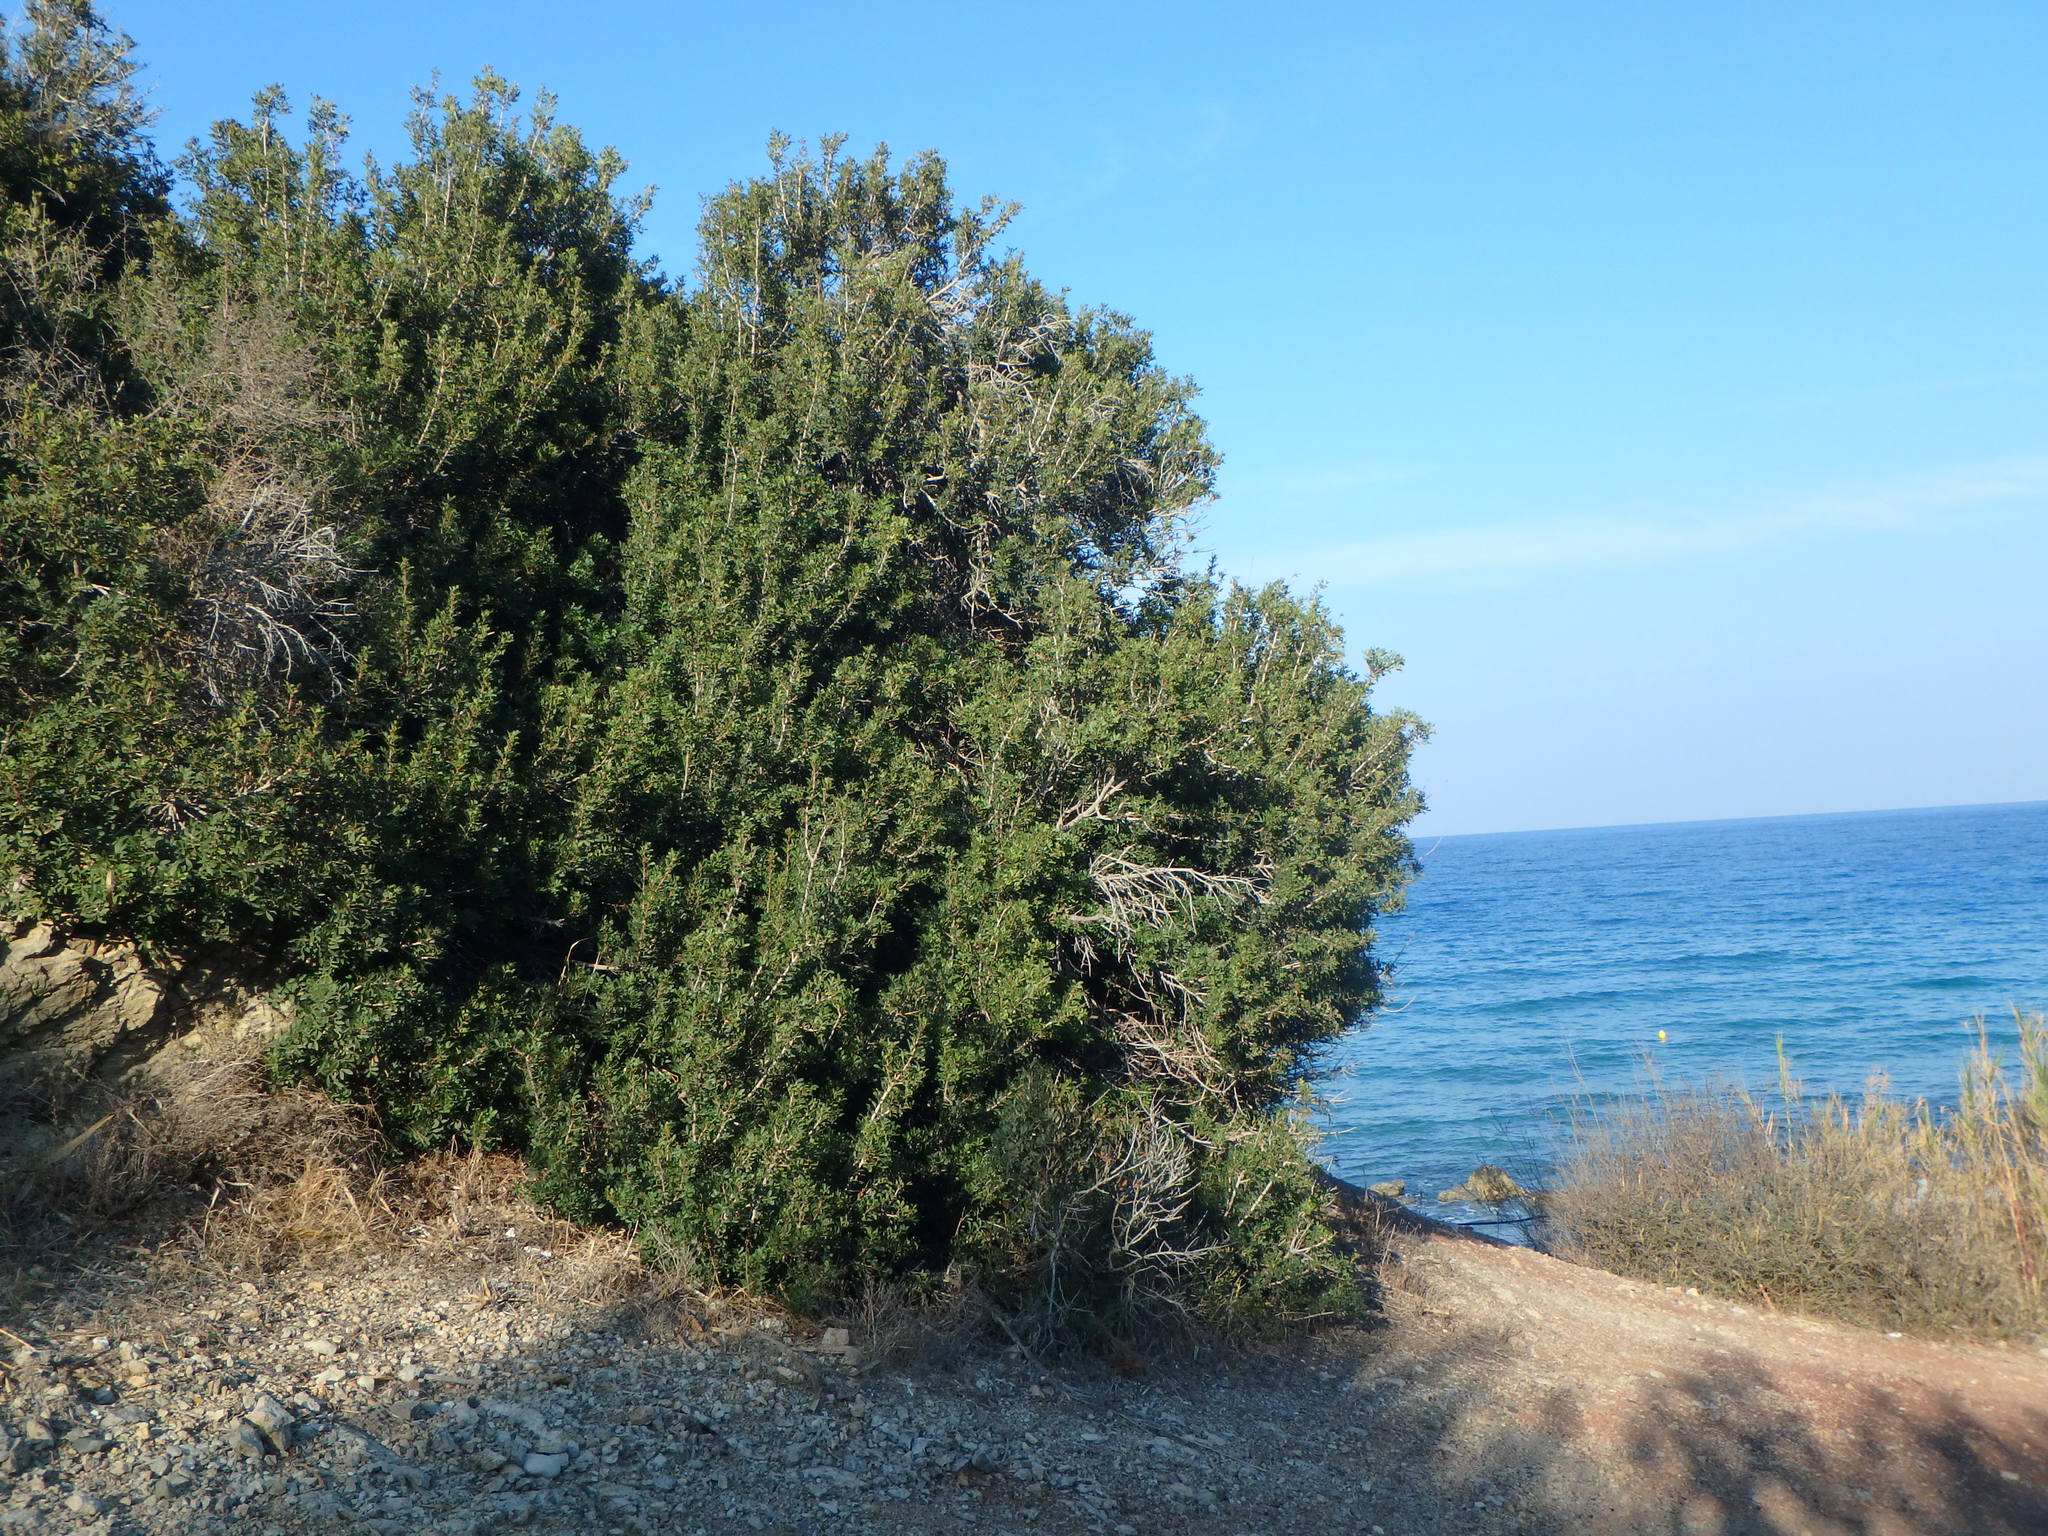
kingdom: Plantae
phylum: Tracheophyta
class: Magnoliopsida
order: Sapindales
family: Anacardiaceae
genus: Pistacia
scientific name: Pistacia lentiscus
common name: Lentisk
